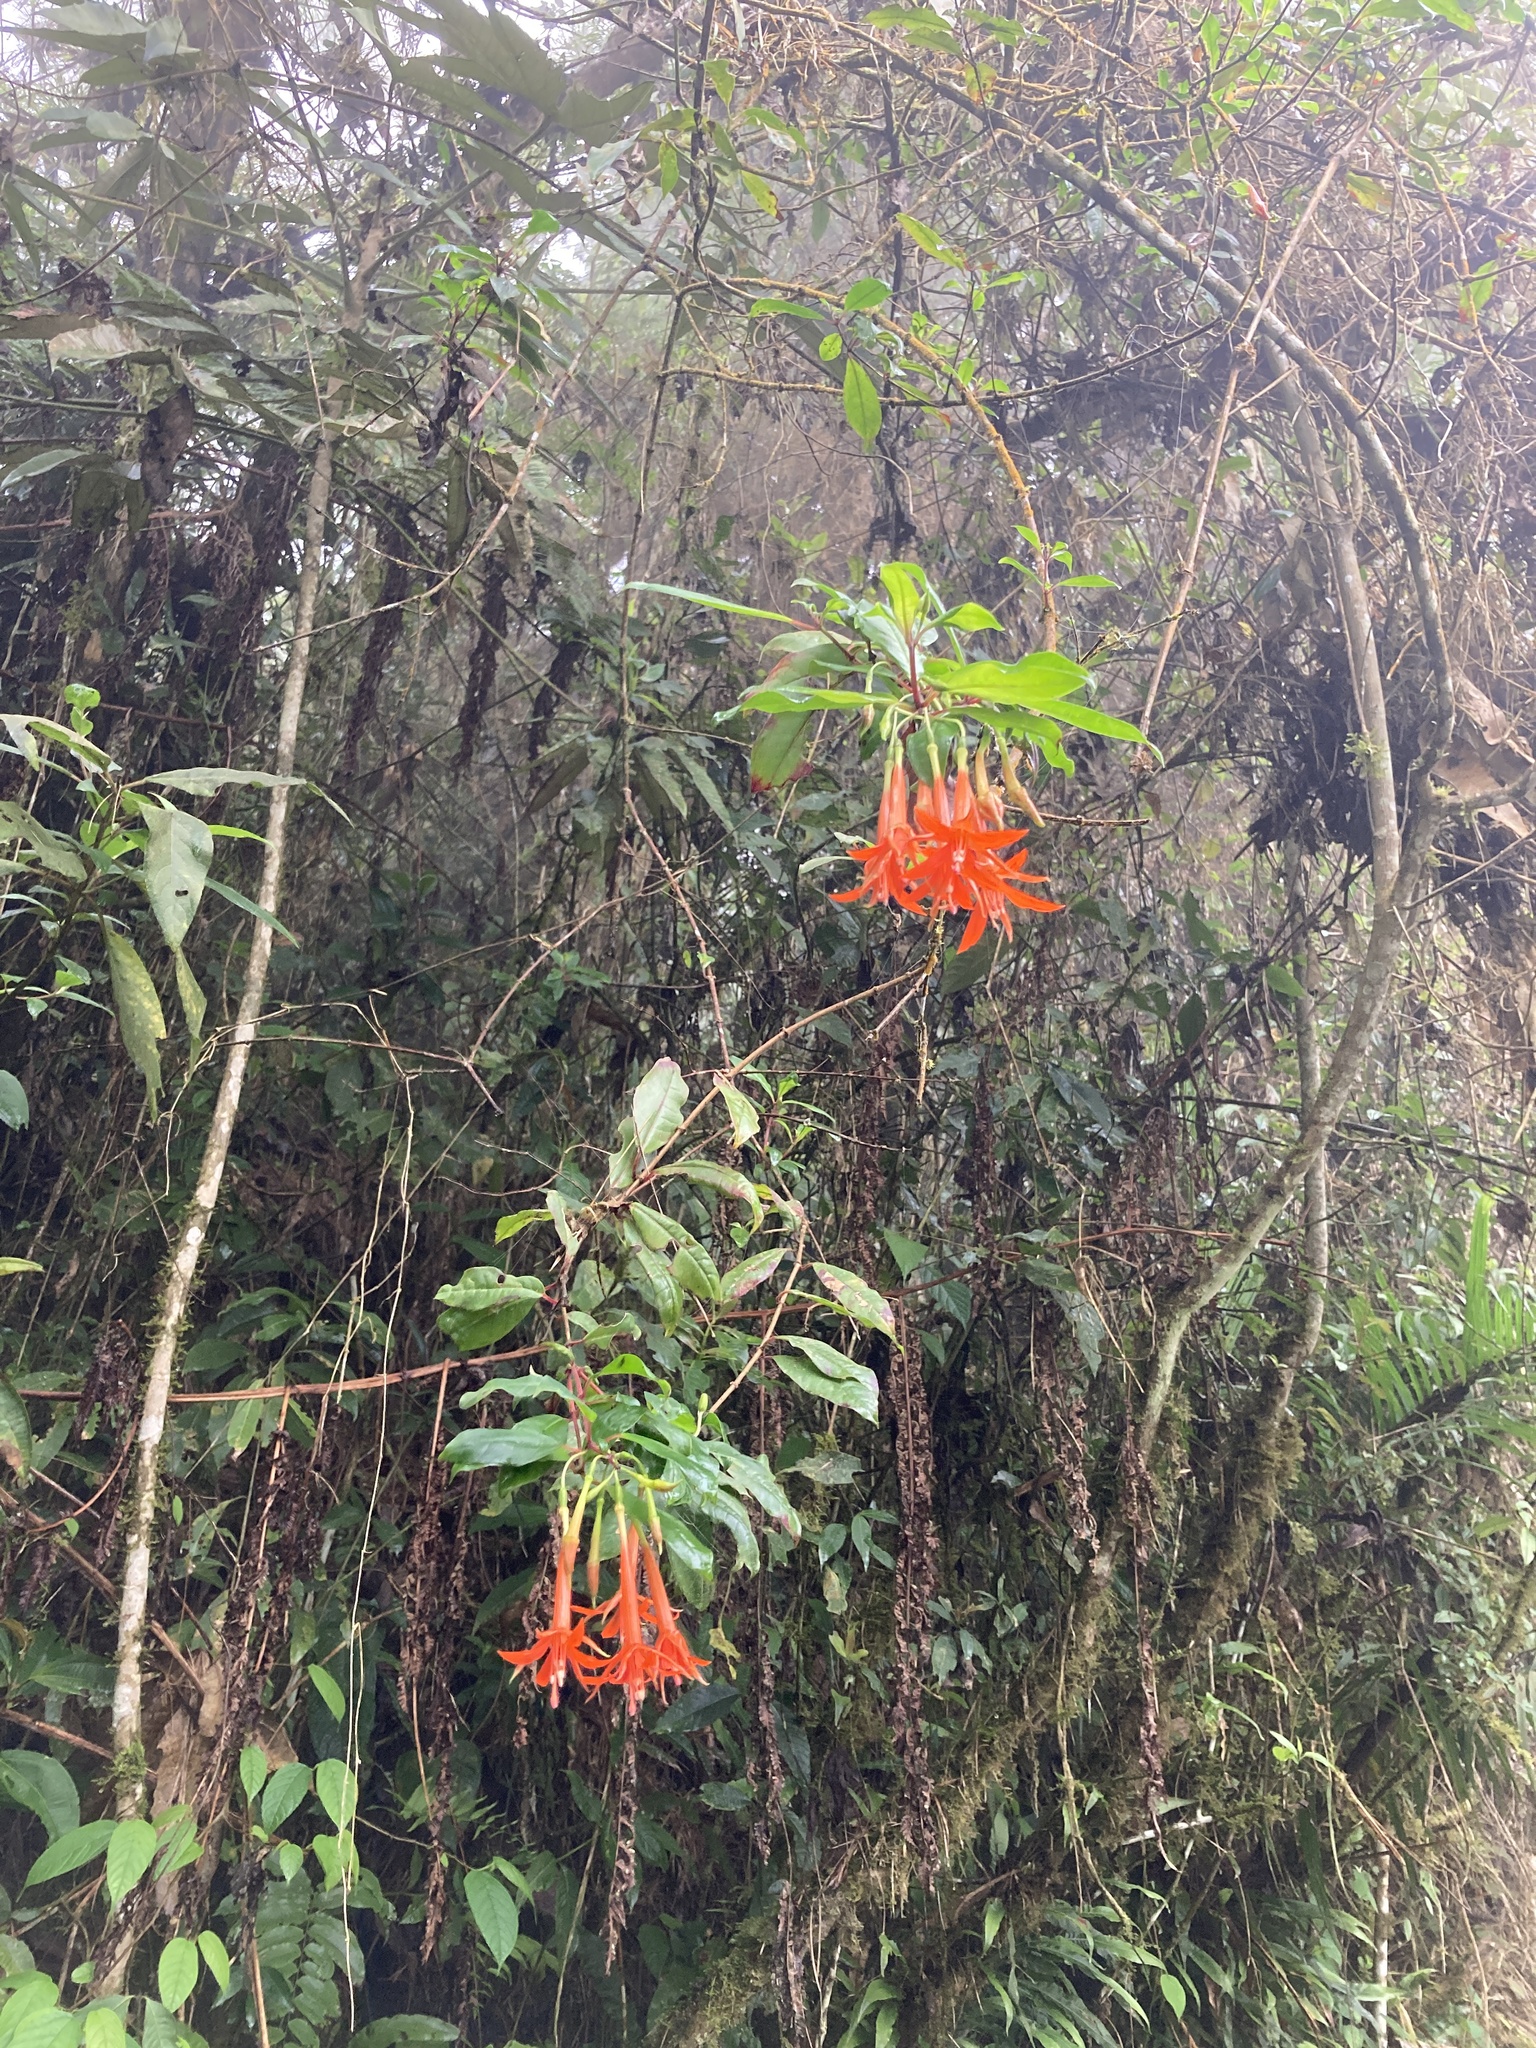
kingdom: Plantae
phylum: Tracheophyta
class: Magnoliopsida
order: Myrtales
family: Onagraceae
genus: Fuchsia
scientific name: Fuchsia venusta
